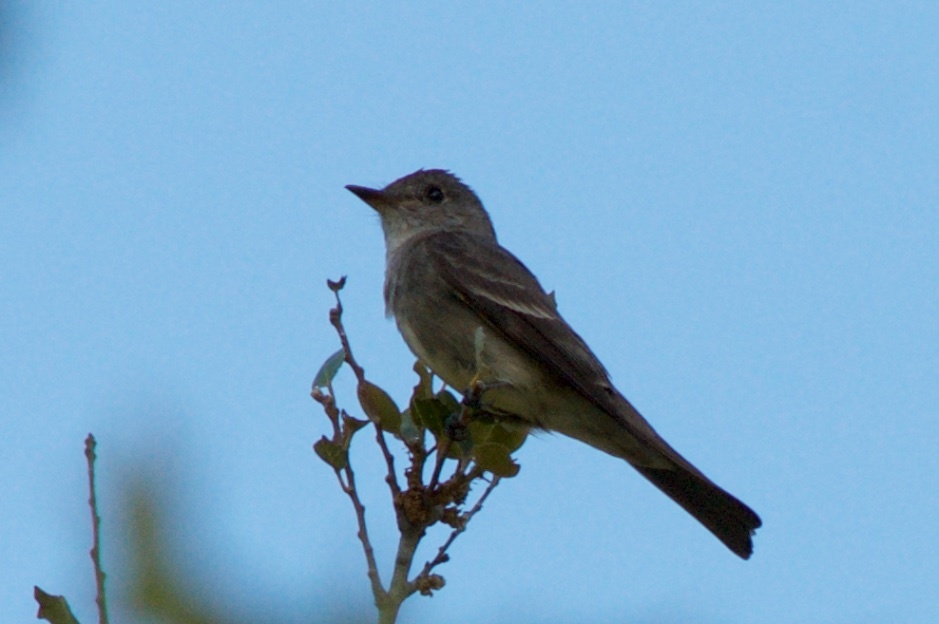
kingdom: Animalia
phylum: Chordata
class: Aves
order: Passeriformes
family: Tyrannidae
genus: Contopus
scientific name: Contopus sordidulus
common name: Western wood-pewee
